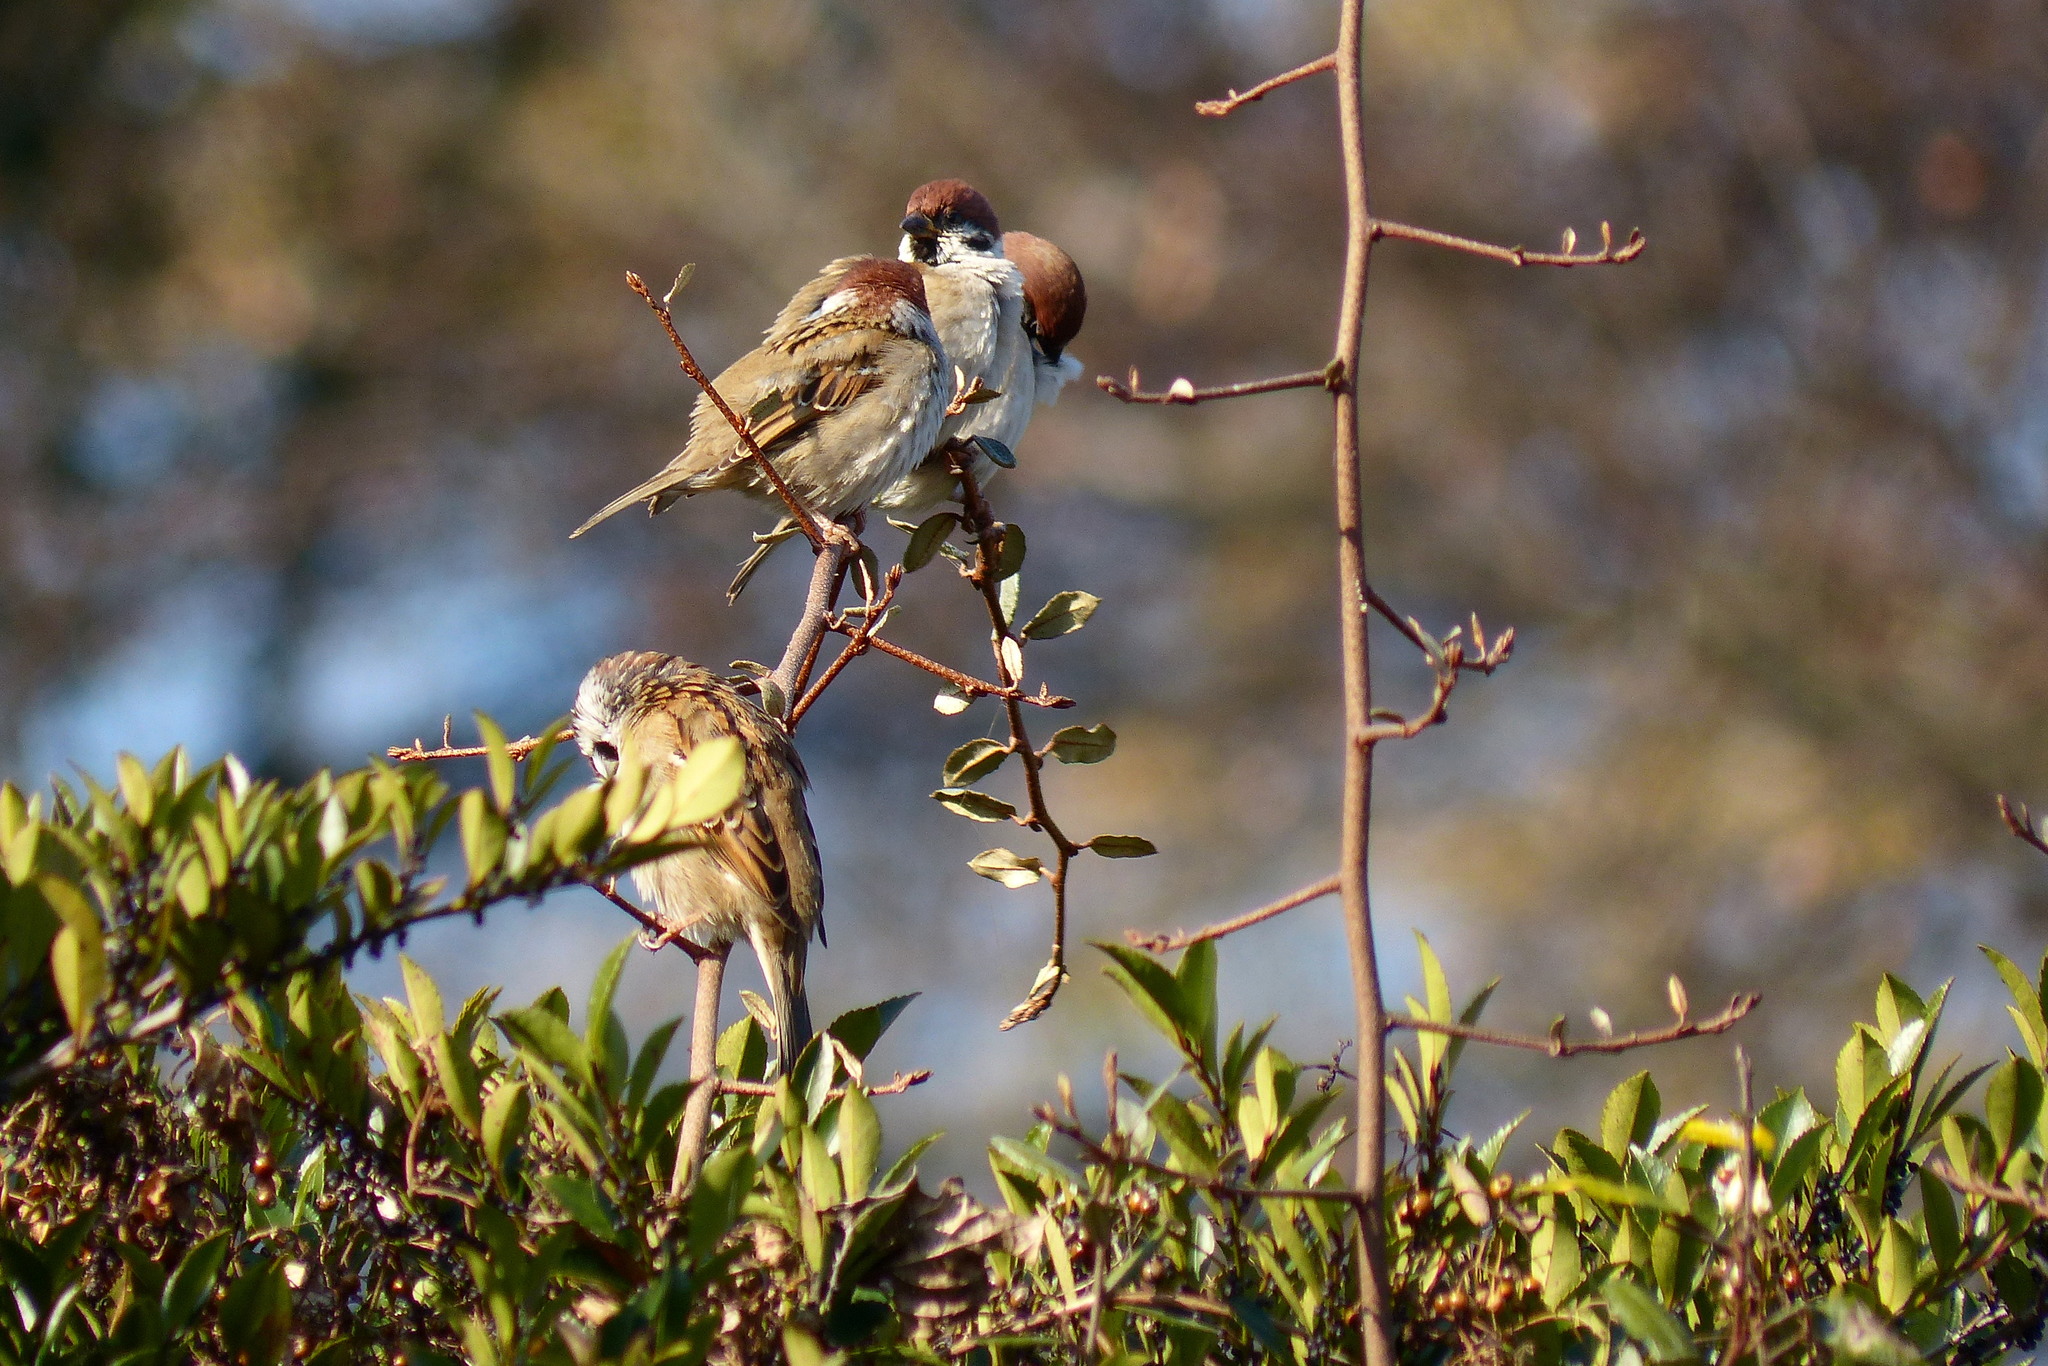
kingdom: Animalia
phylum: Chordata
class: Aves
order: Passeriformes
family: Passeridae
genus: Passer
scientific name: Passer montanus
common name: Eurasian tree sparrow
